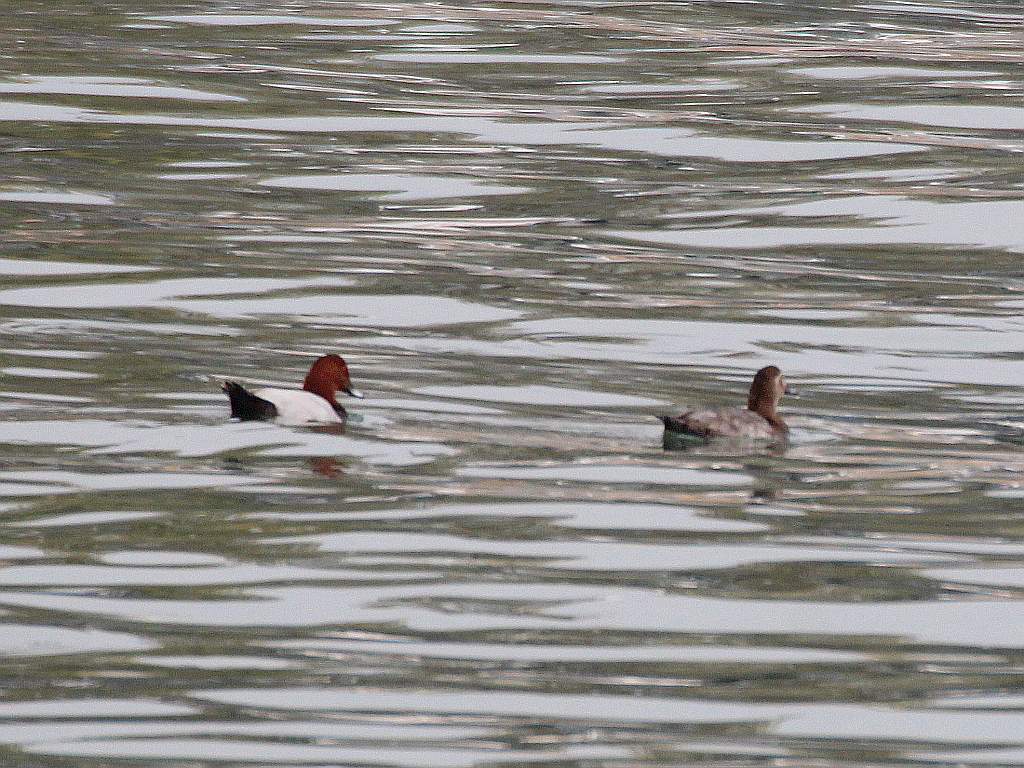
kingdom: Animalia
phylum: Chordata
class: Aves
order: Anseriformes
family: Anatidae
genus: Aythya
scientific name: Aythya ferina
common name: Common pochard
